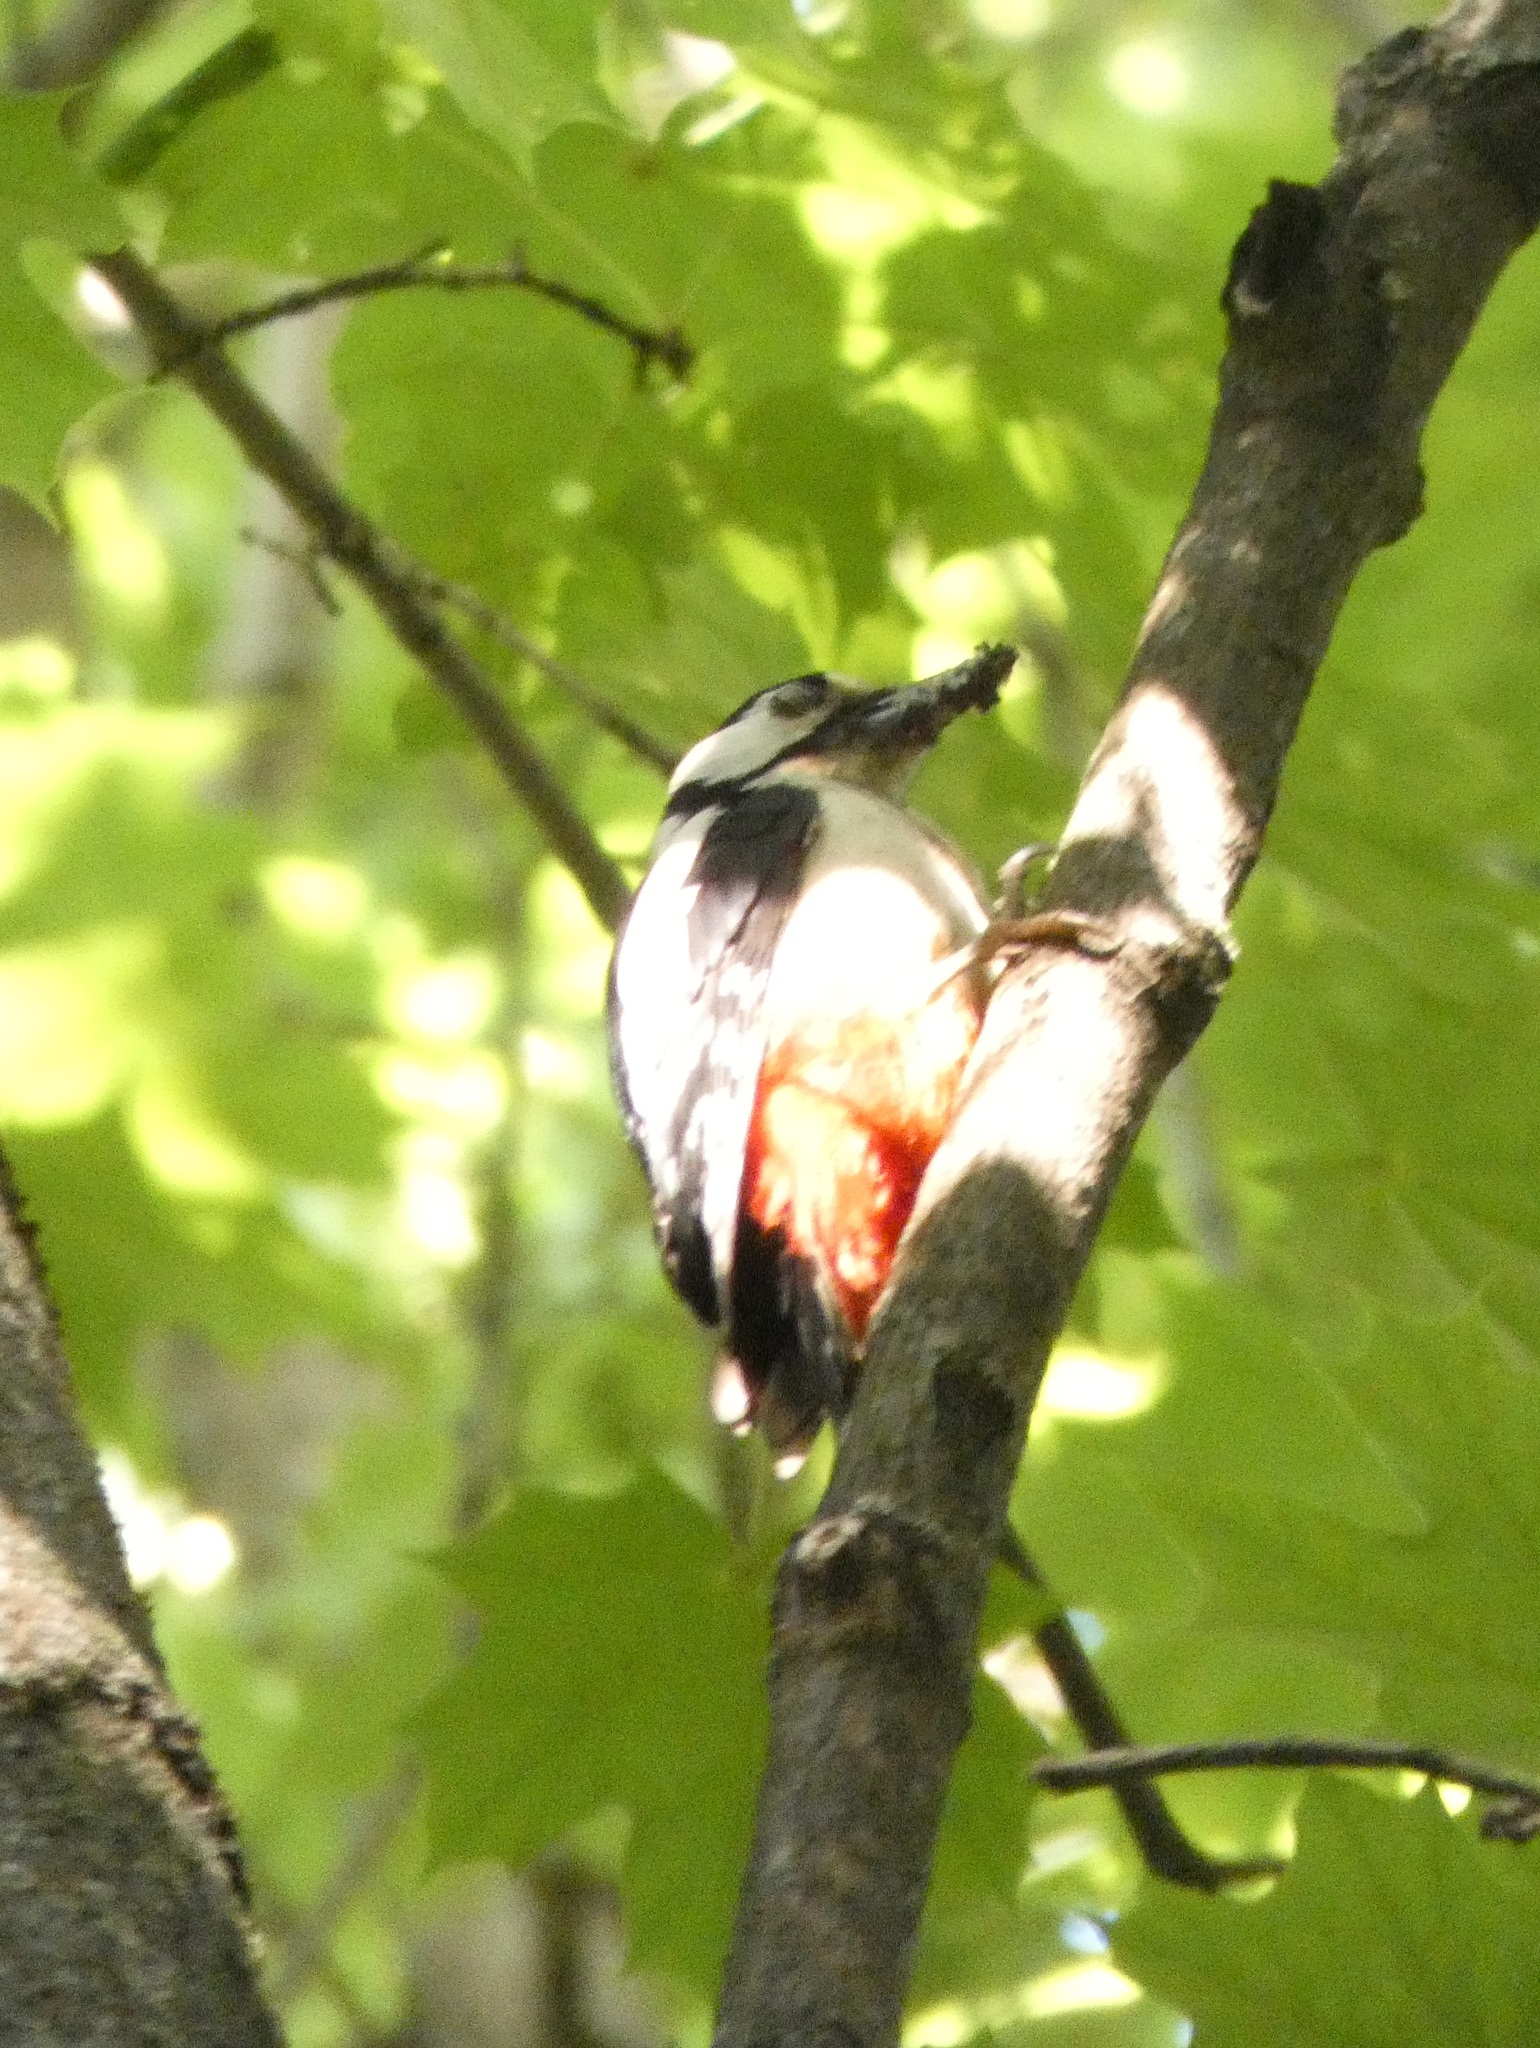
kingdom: Animalia
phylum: Chordata
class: Aves
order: Piciformes
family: Picidae
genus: Dendrocopos
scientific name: Dendrocopos major
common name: Great spotted woodpecker
